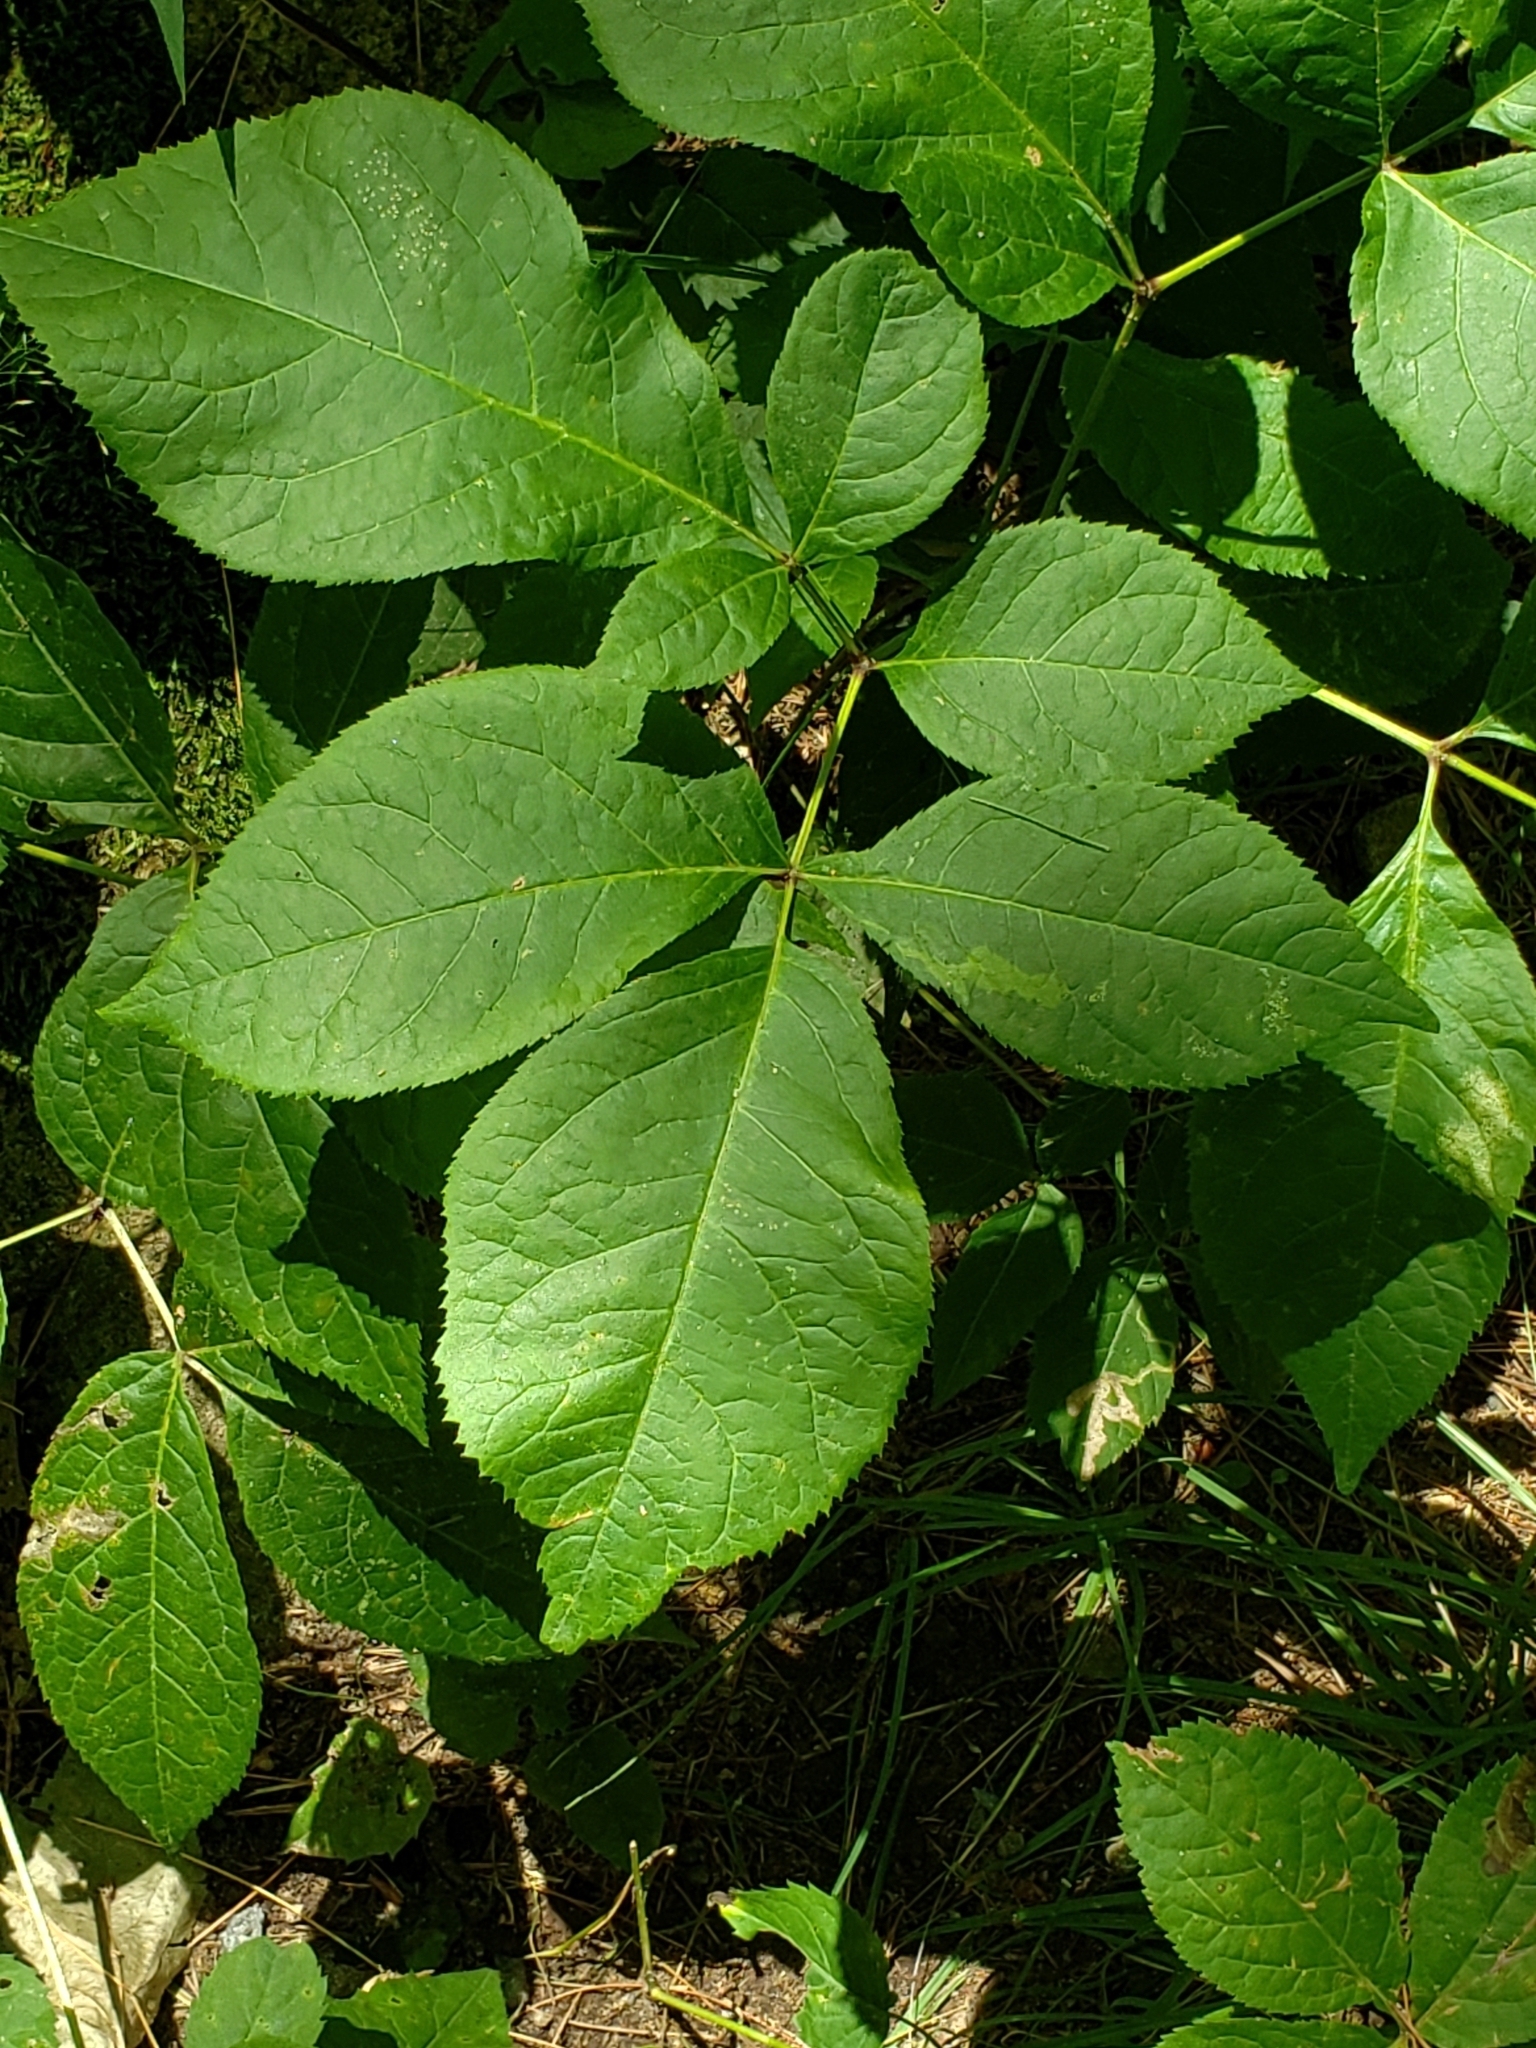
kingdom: Plantae
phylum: Tracheophyta
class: Magnoliopsida
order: Apiales
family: Araliaceae
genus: Aralia
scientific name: Aralia nudicaulis
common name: Wild sarsaparilla
